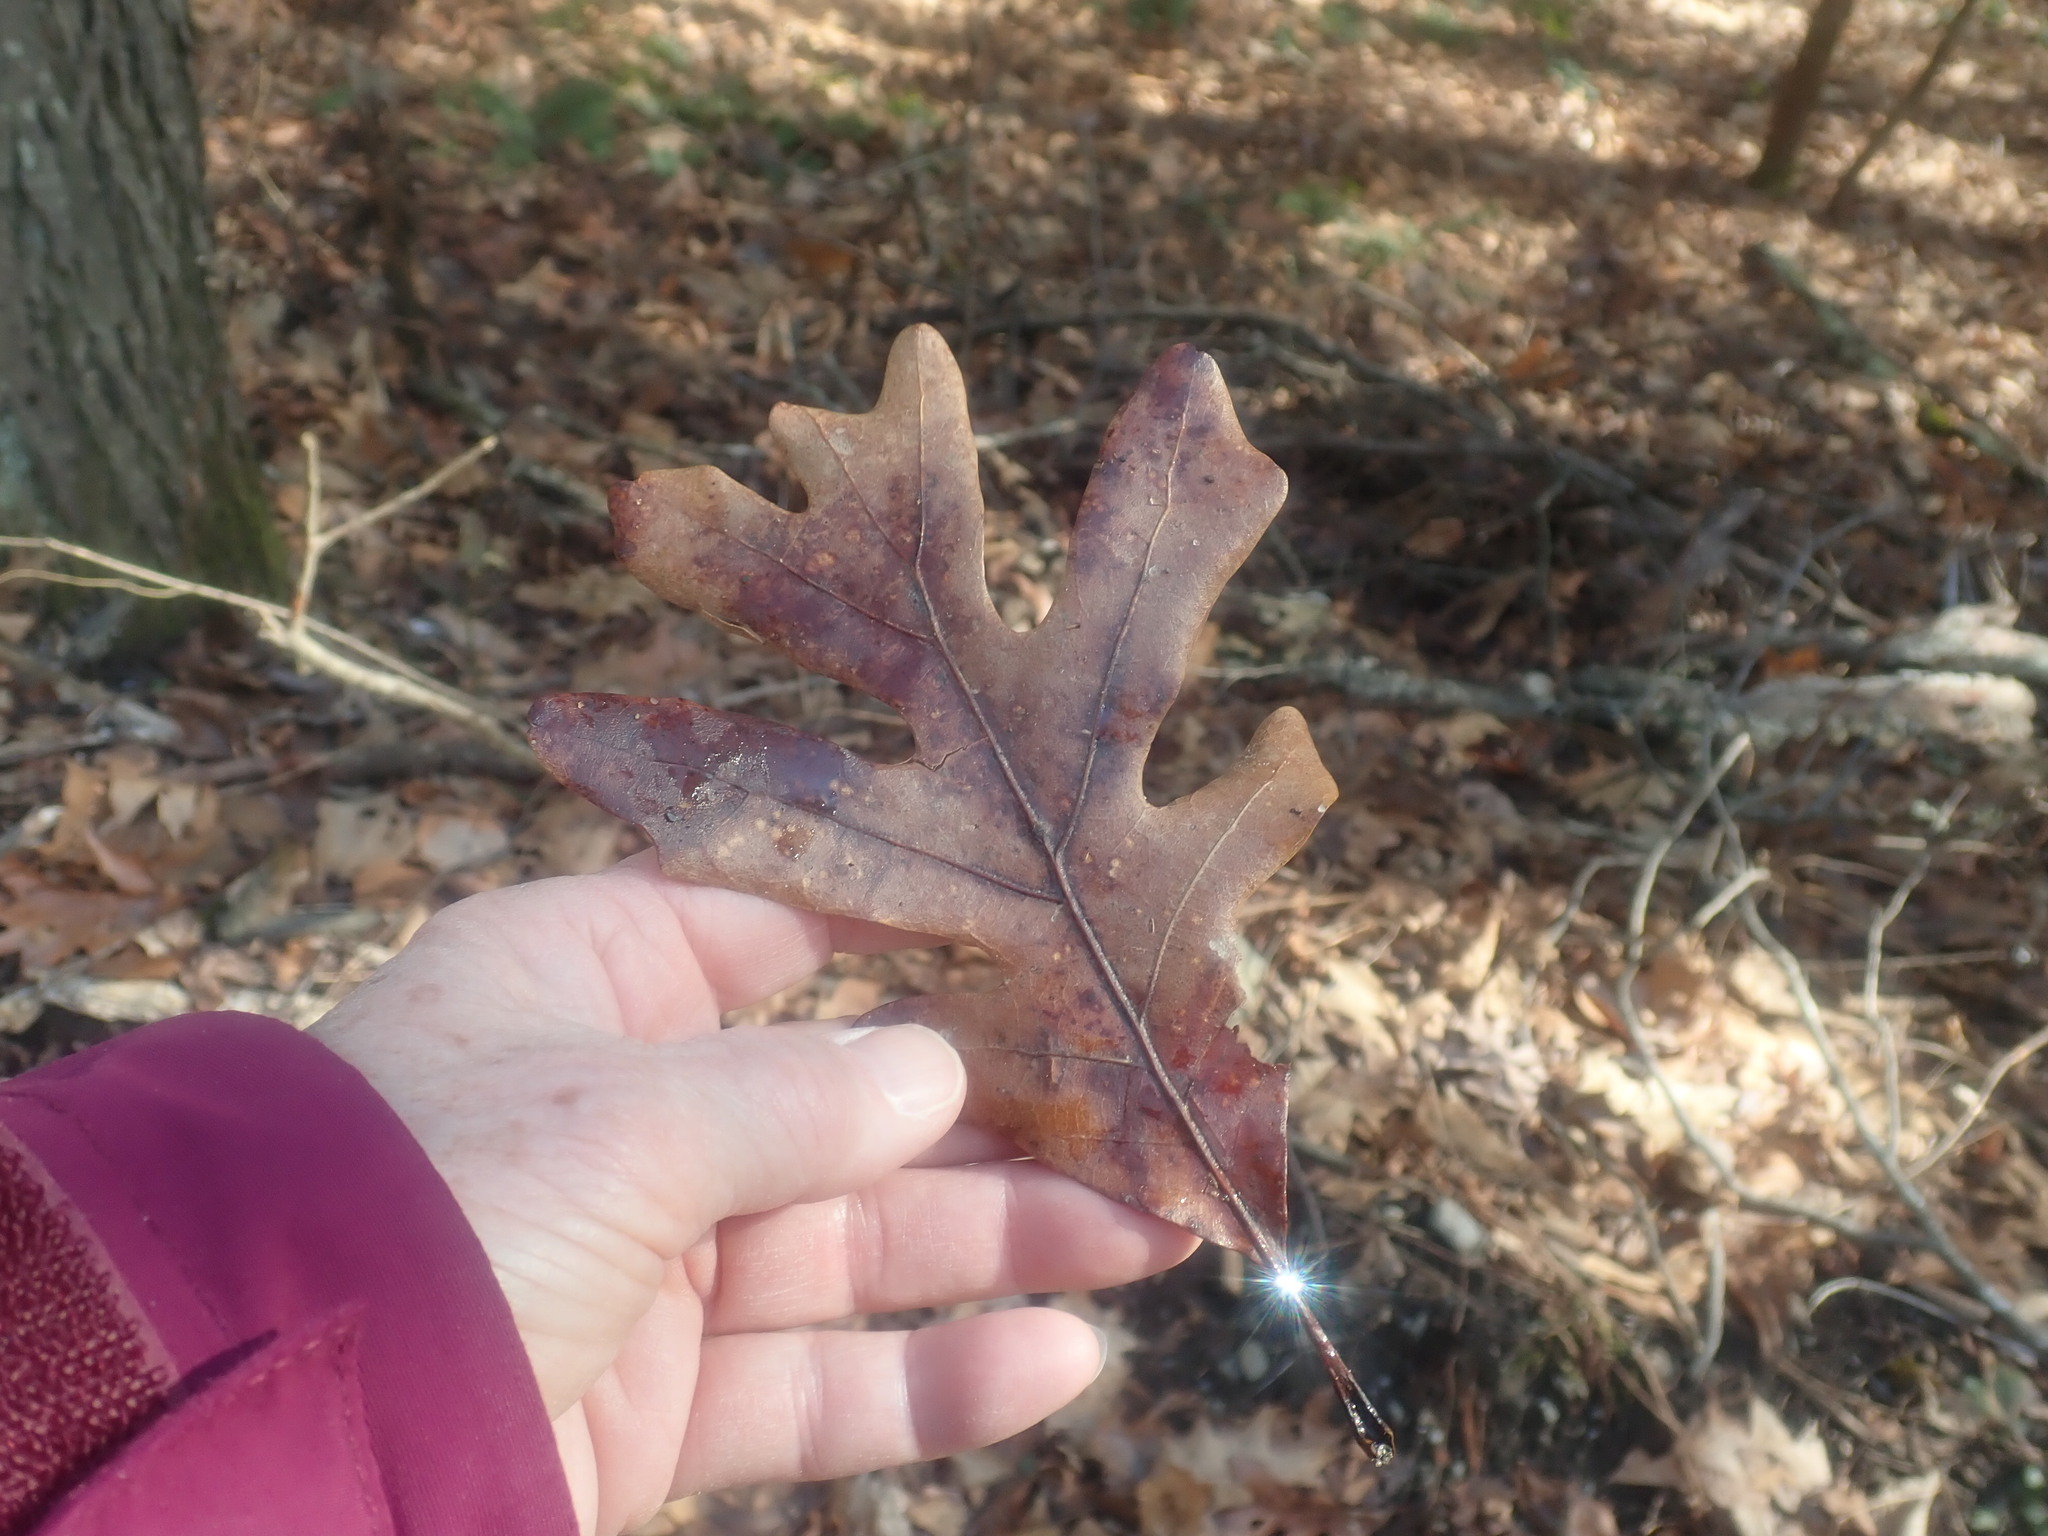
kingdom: Plantae
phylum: Tracheophyta
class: Magnoliopsida
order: Fagales
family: Fagaceae
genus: Quercus
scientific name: Quercus alba
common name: White oak
